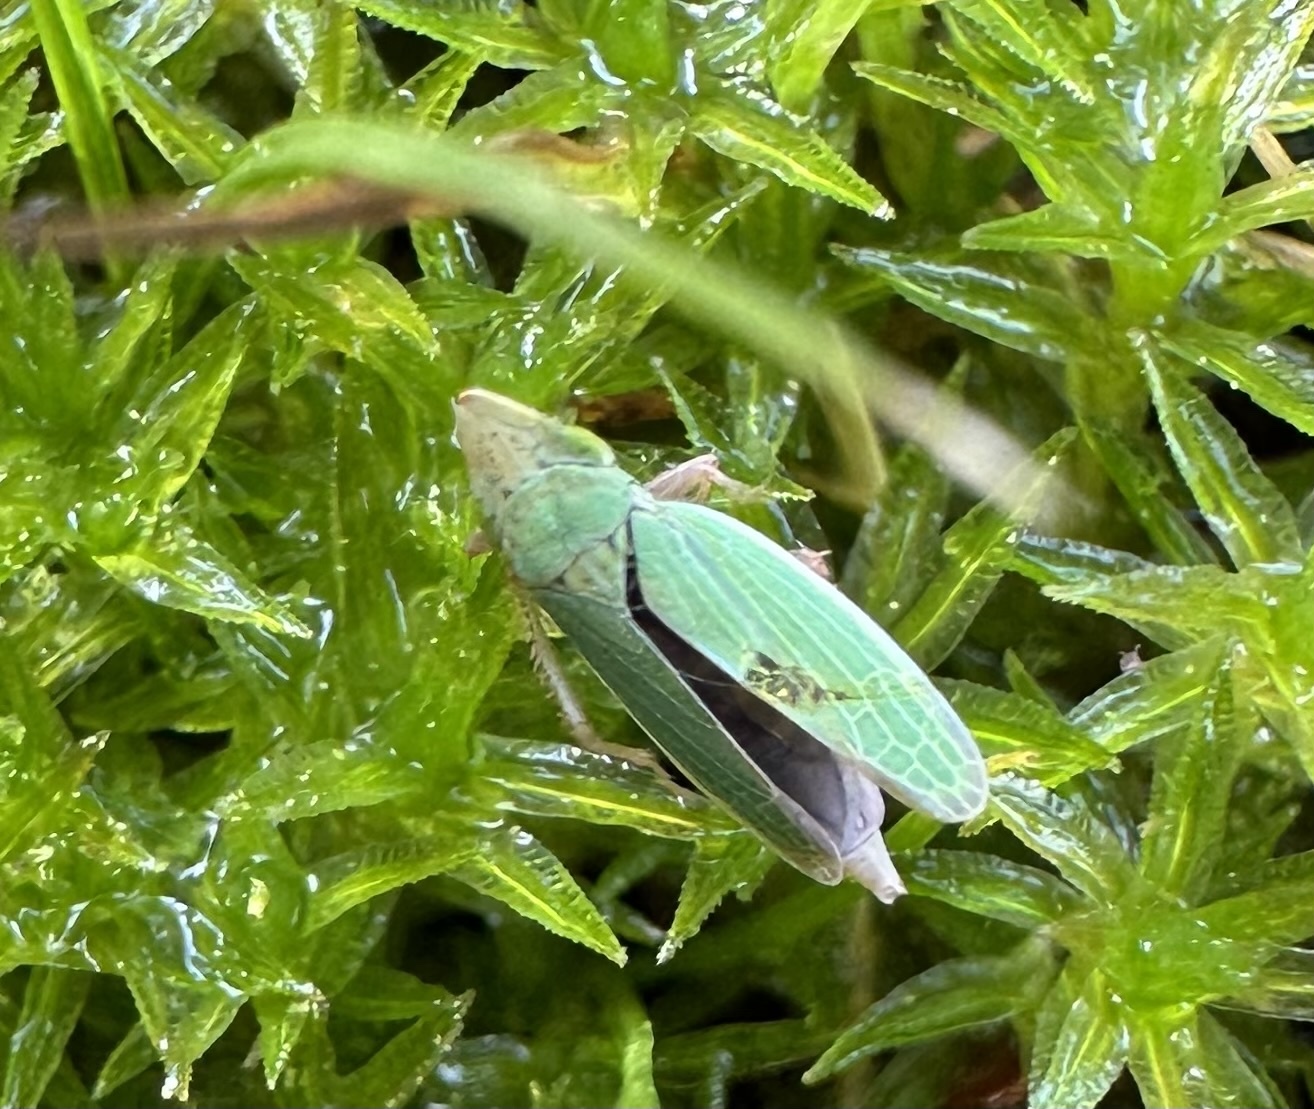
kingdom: Animalia
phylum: Arthropoda
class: Insecta
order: Hemiptera
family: Cicadellidae
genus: Draeculacephala
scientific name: Draeculacephala balli
